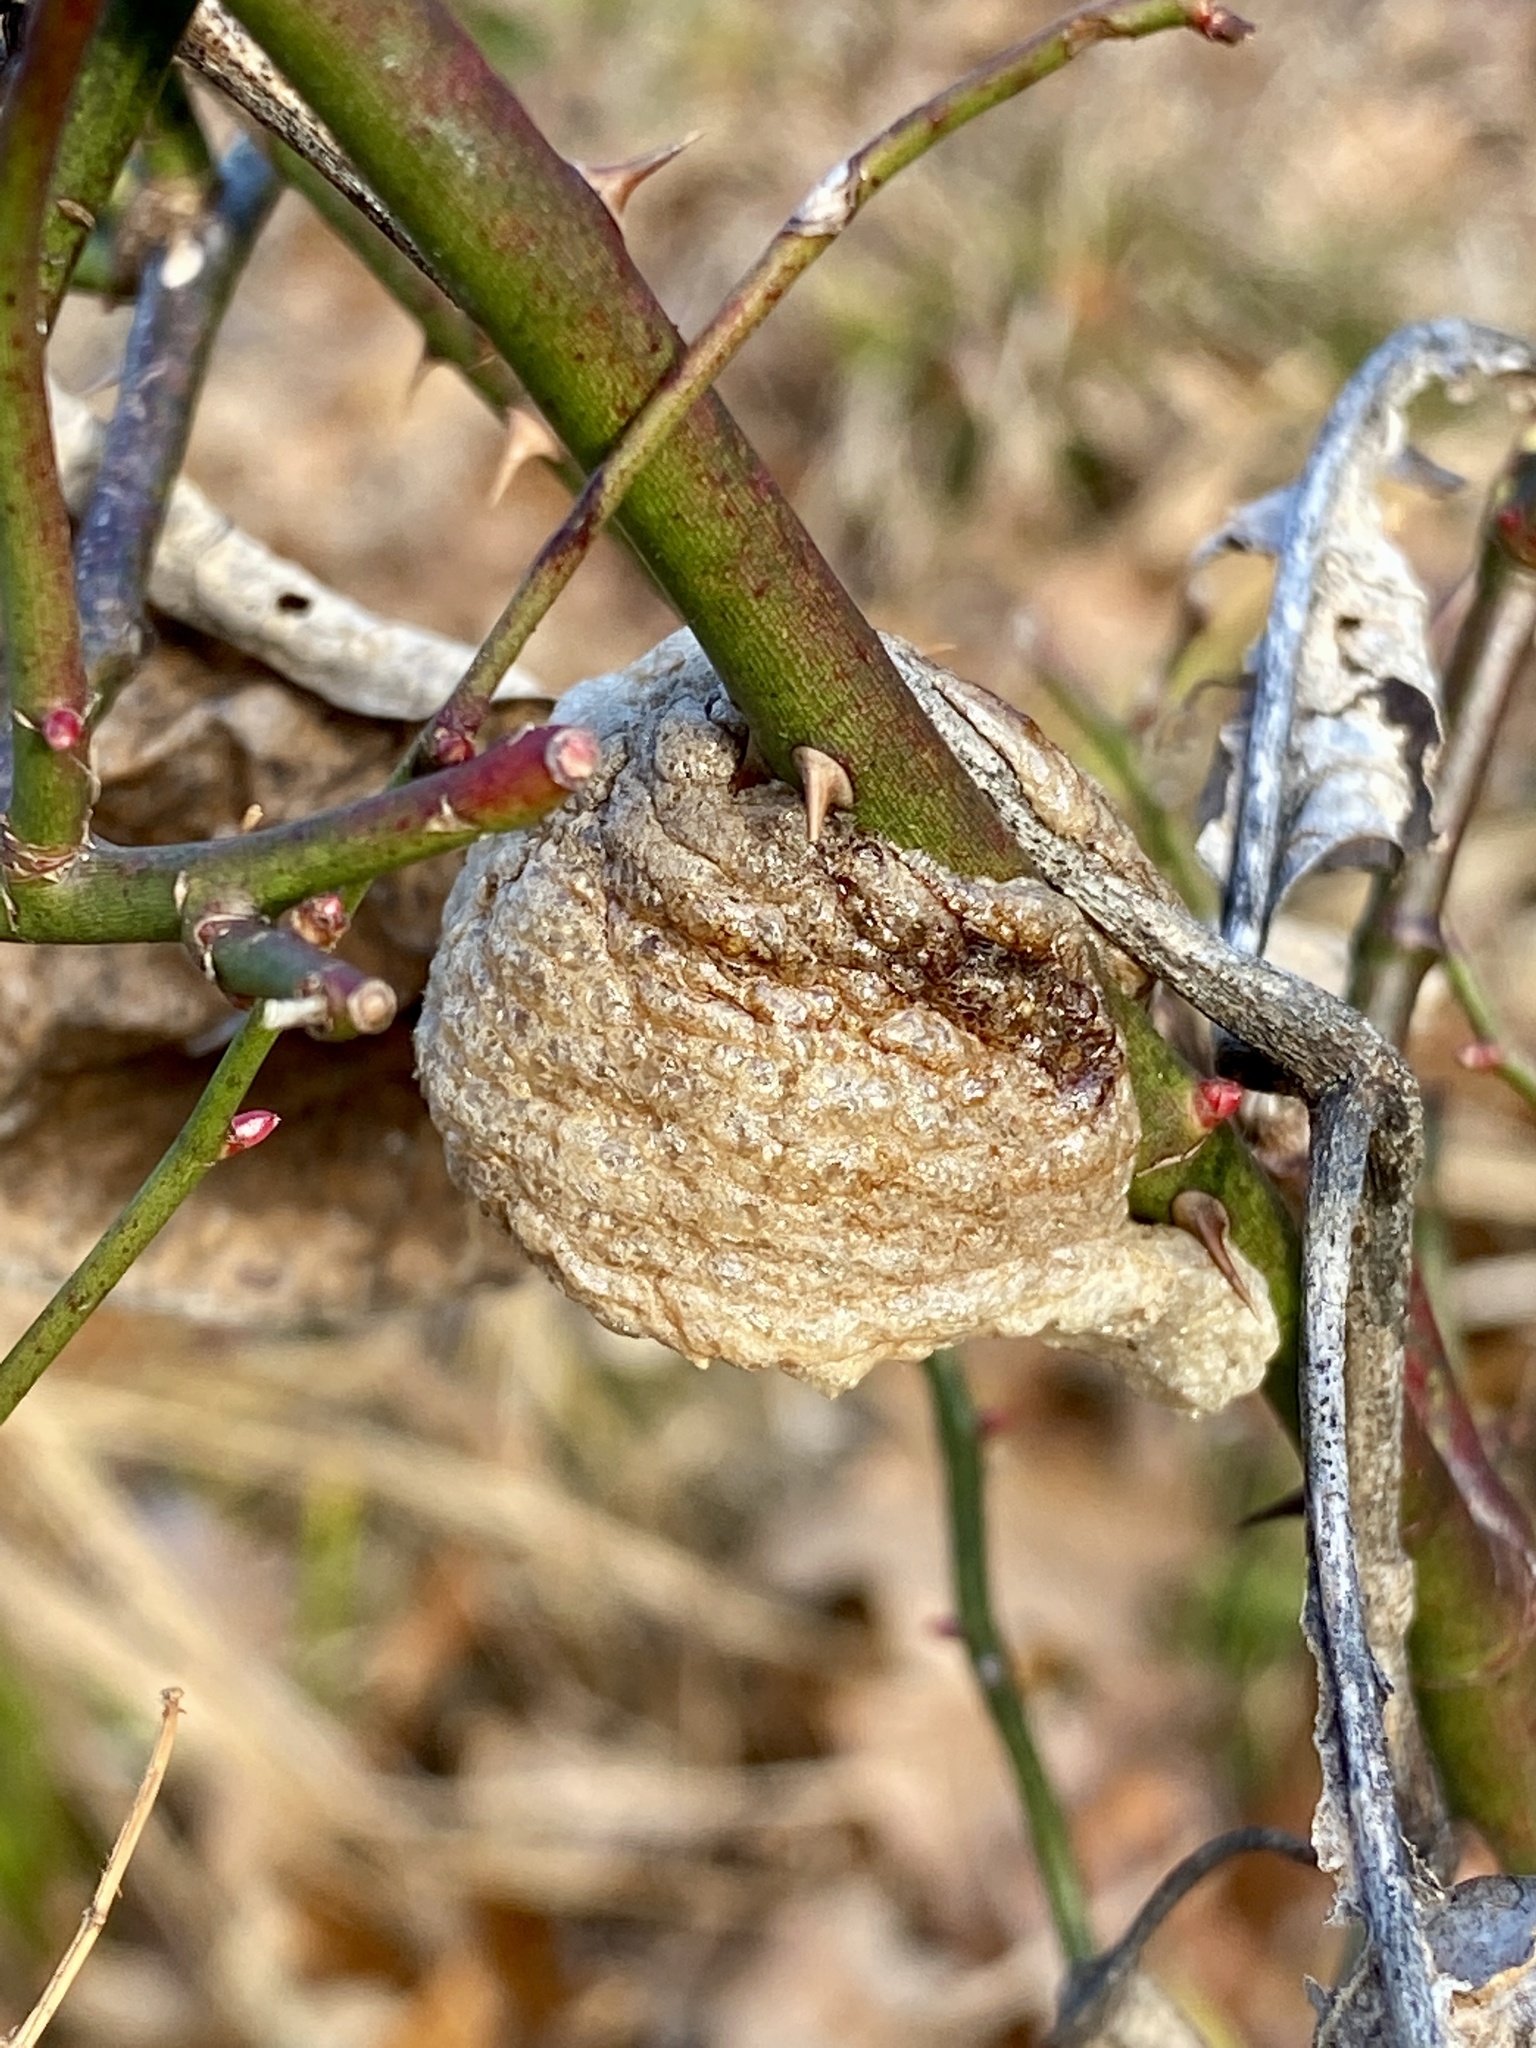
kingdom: Animalia
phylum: Arthropoda
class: Insecta
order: Mantodea
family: Mantidae
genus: Tenodera
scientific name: Tenodera sinensis
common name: Chinese mantis
